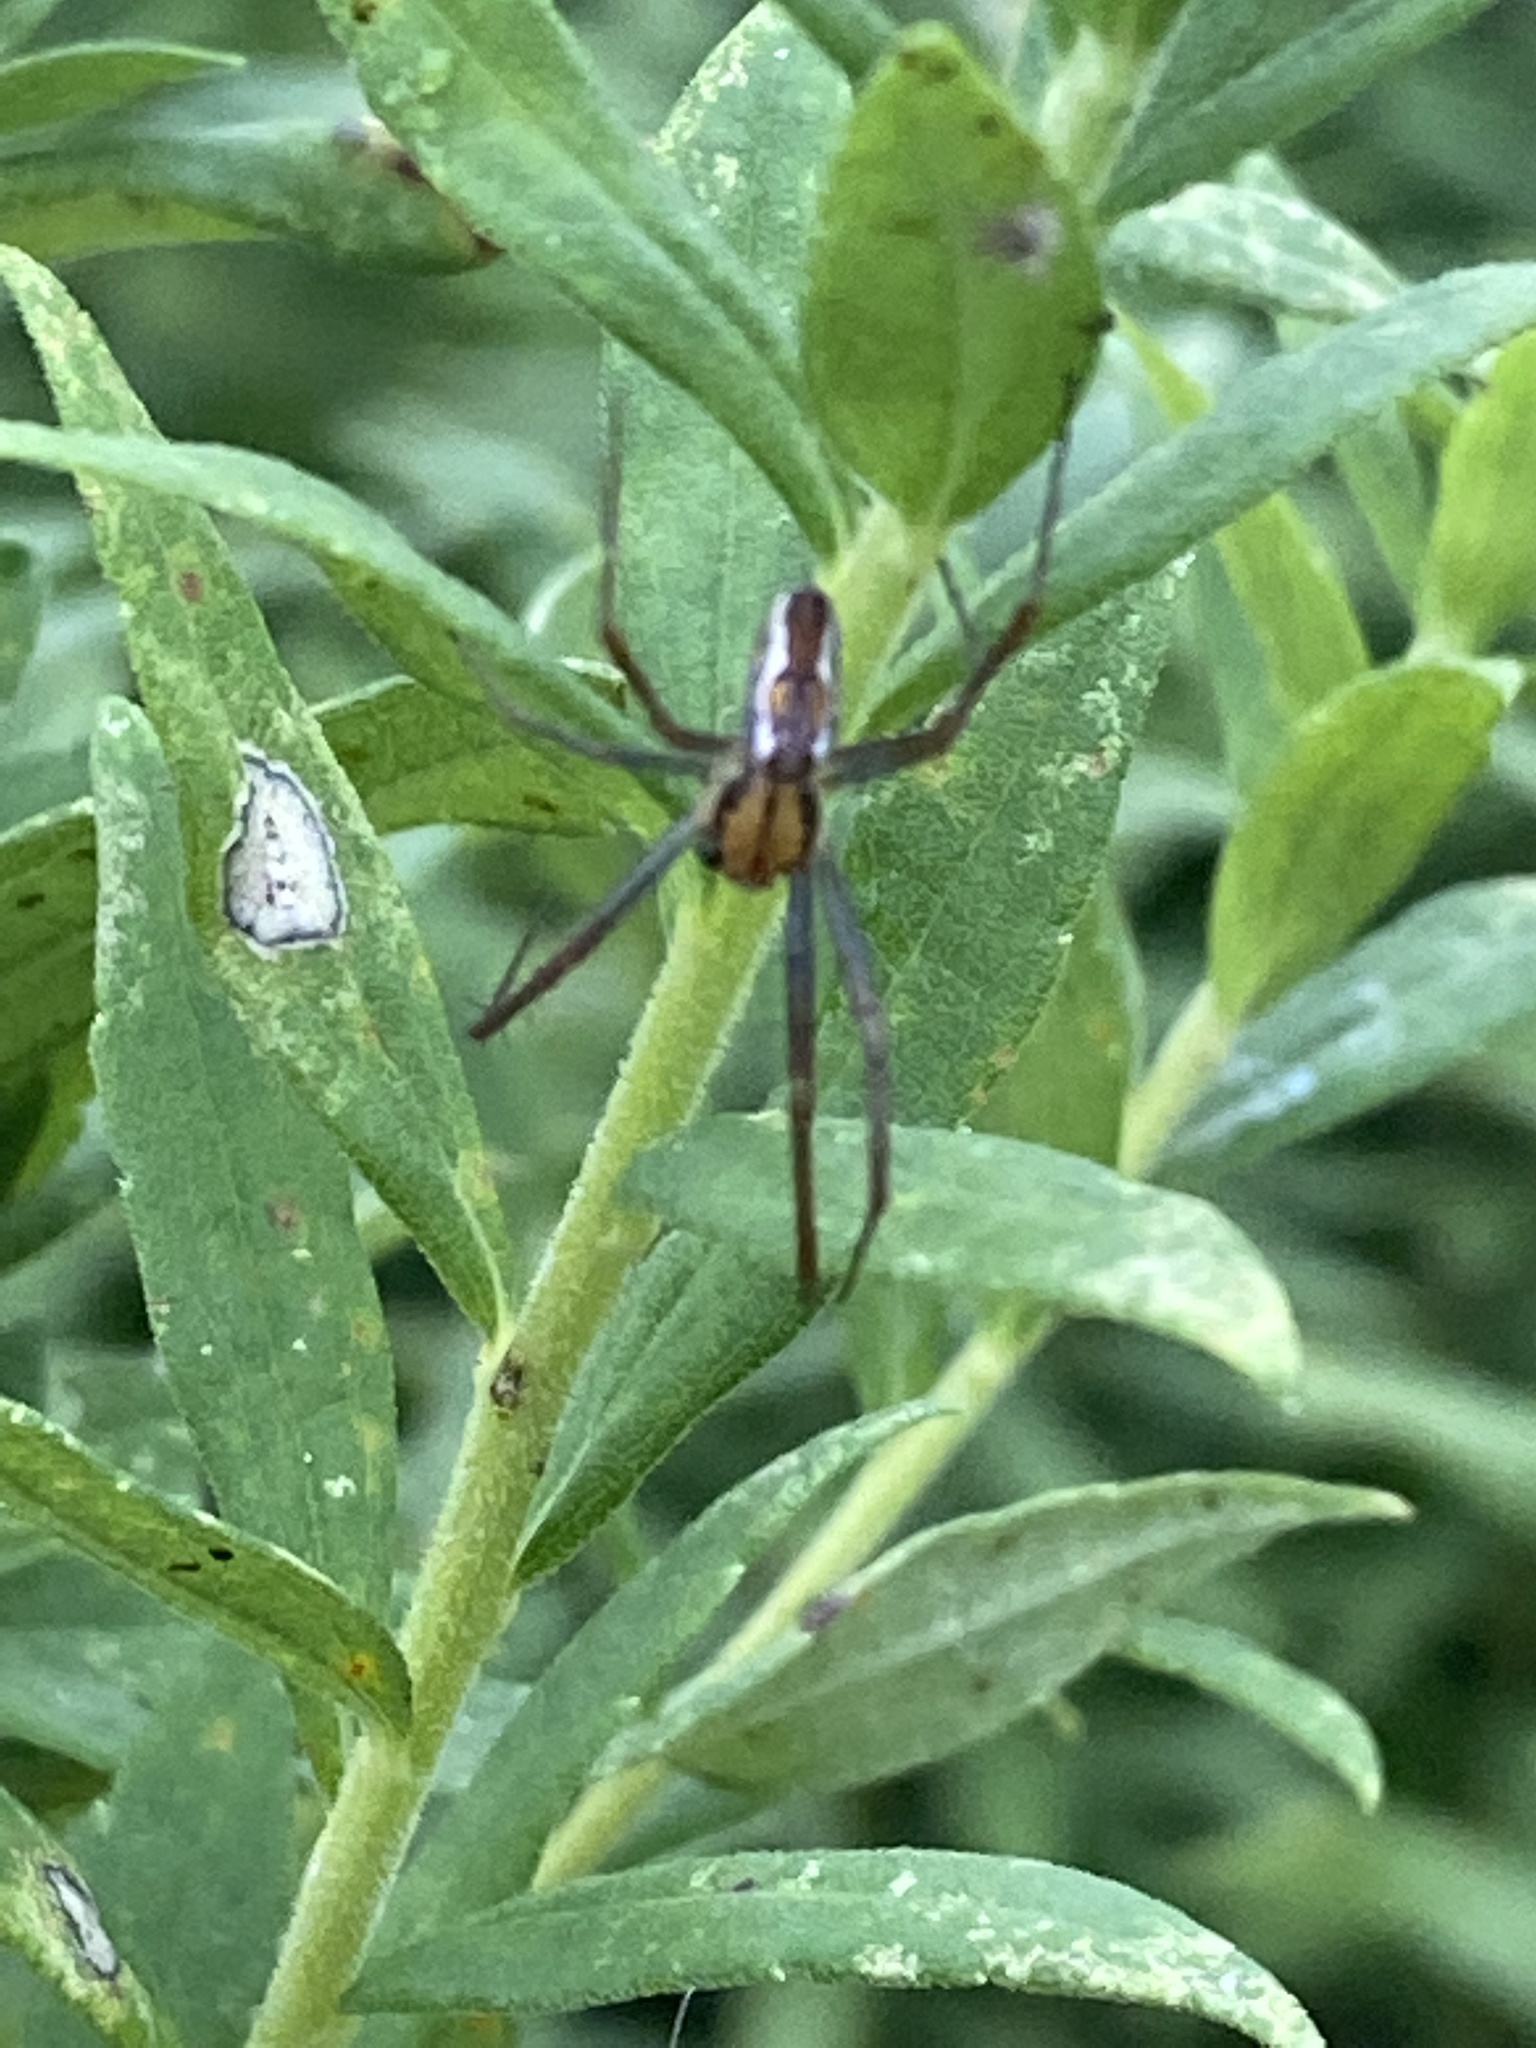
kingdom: Animalia
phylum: Arthropoda
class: Arachnida
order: Araneae
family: Araneidae
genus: Mecynogea
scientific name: Mecynogea lemniscata
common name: Orb weavers
